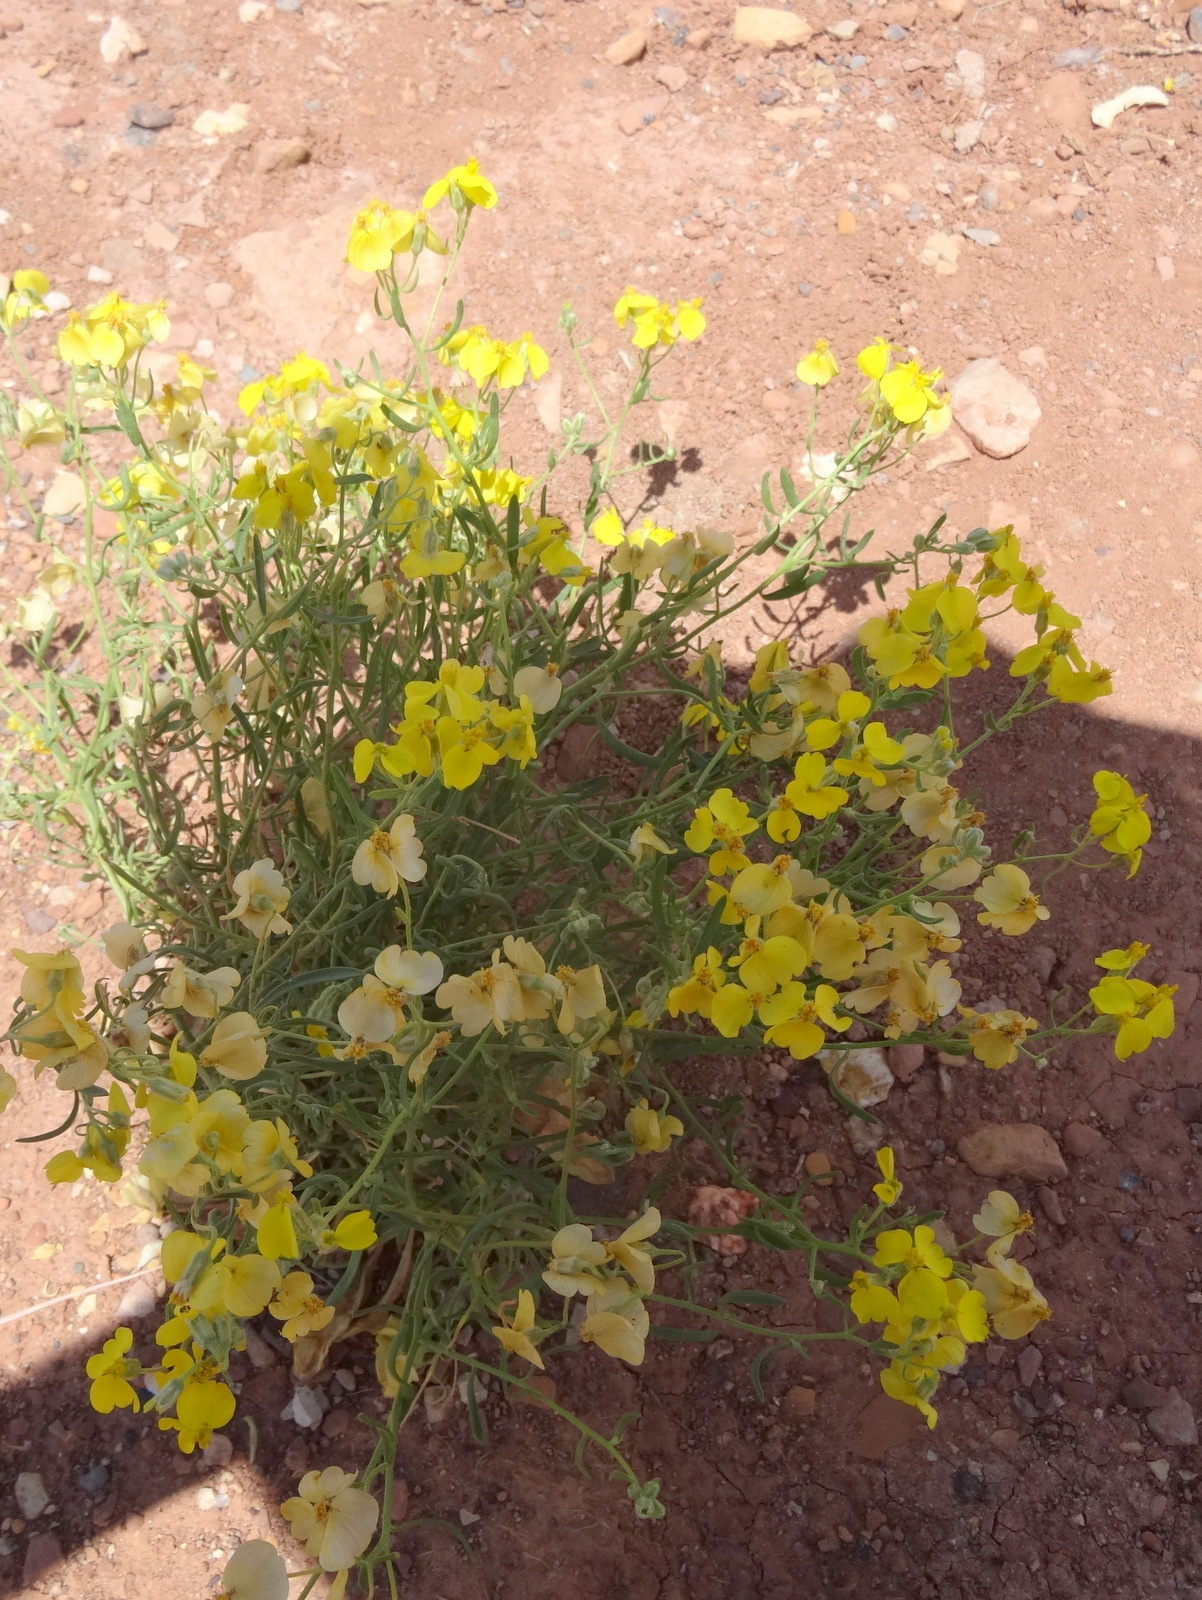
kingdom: Plantae
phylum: Tracheophyta
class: Magnoliopsida
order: Asterales
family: Asteraceae
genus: Psilostrophe
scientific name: Psilostrophe sparsiflora
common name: Green-stem paper-flower
